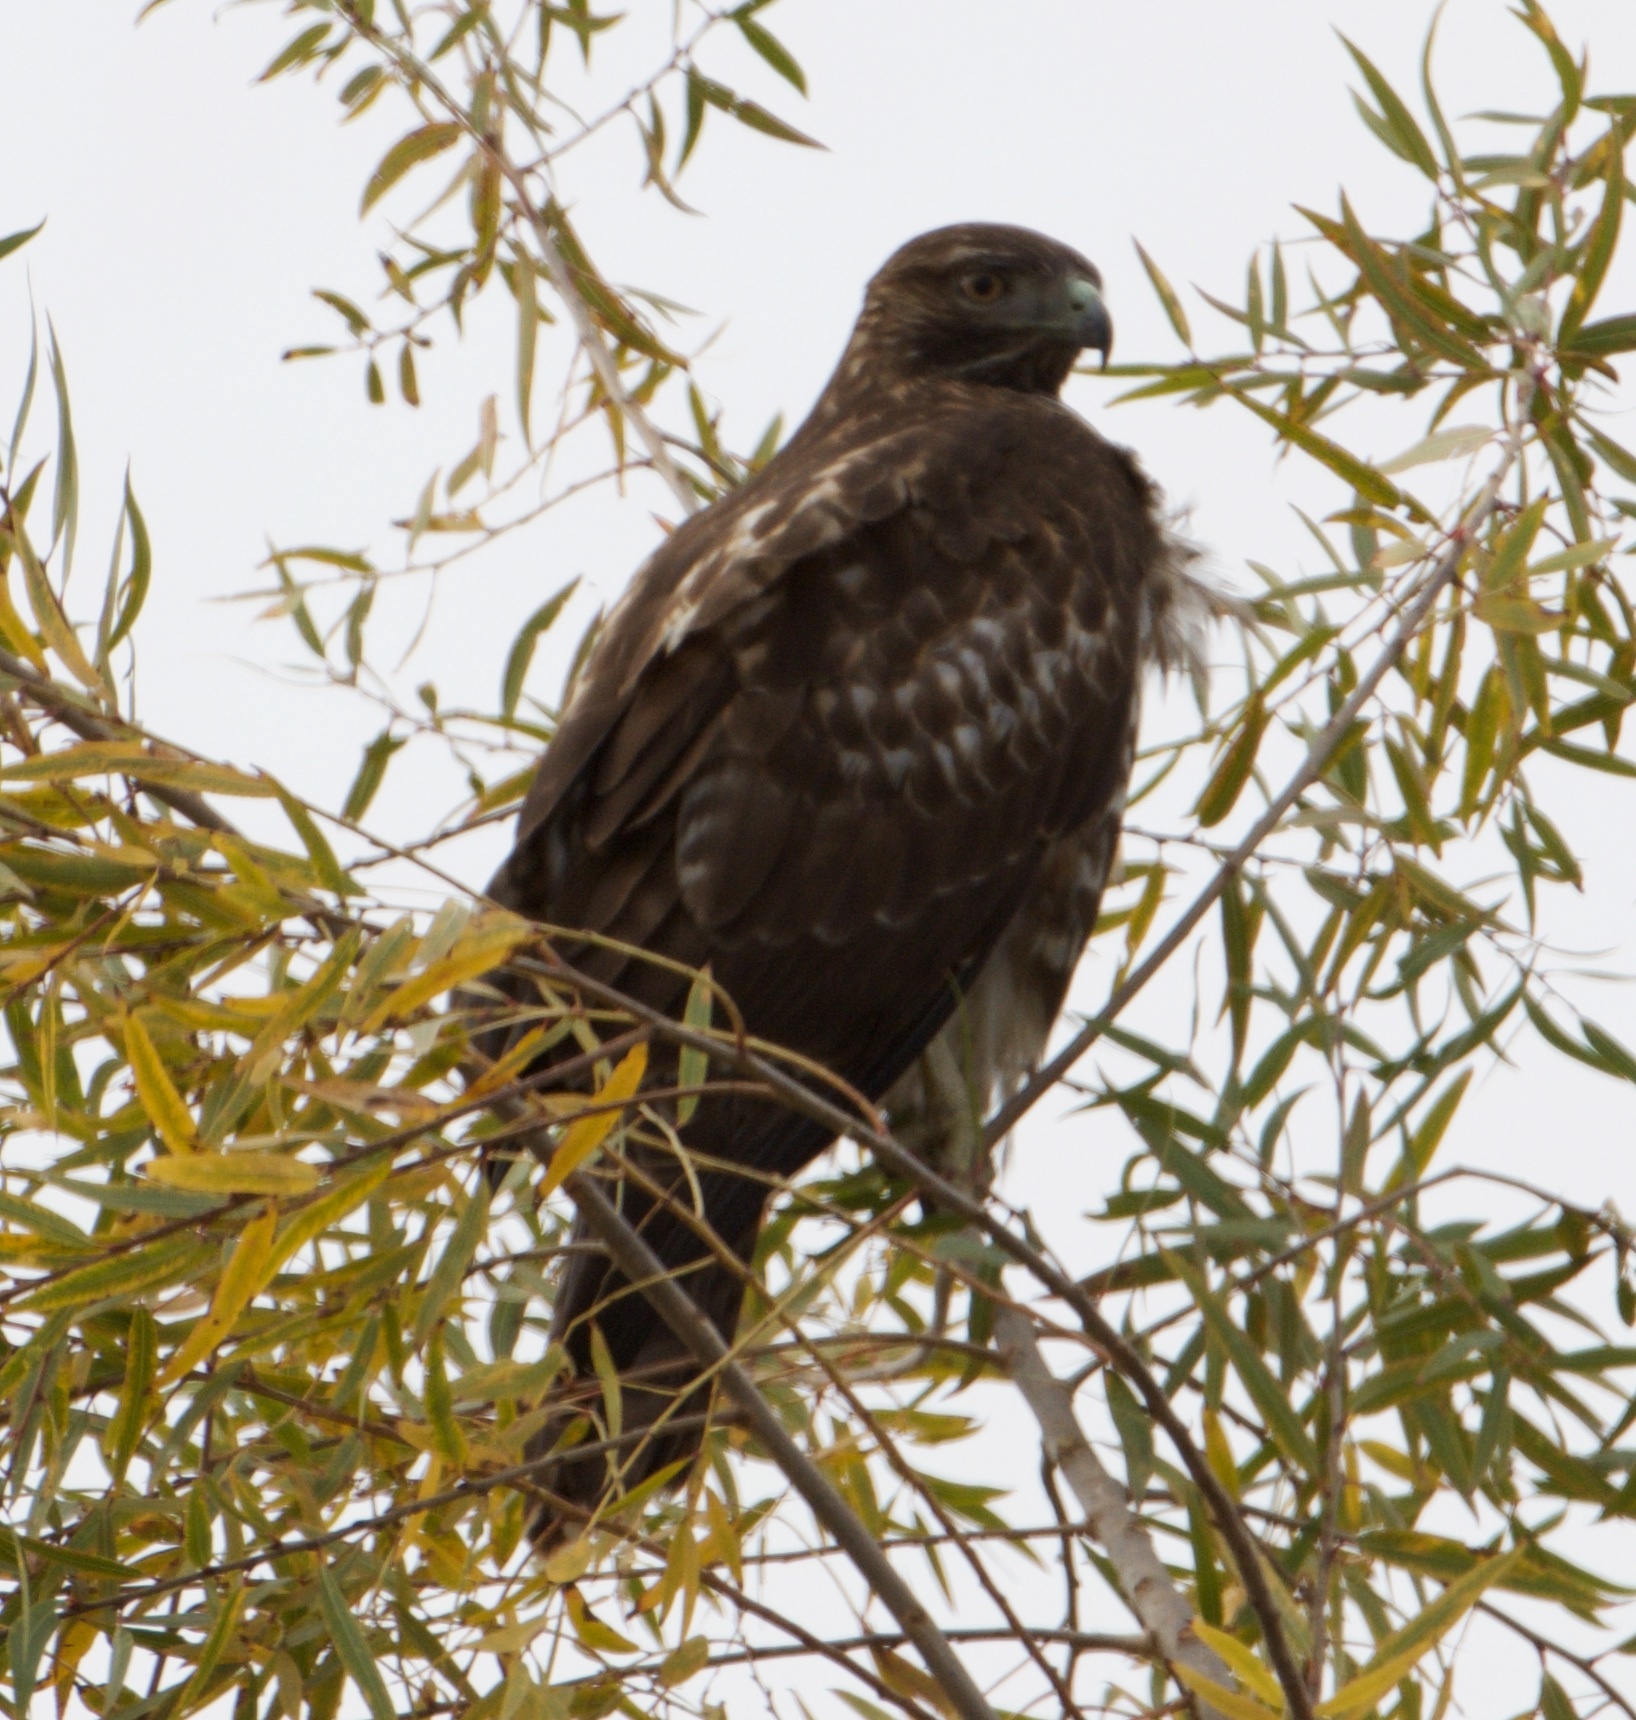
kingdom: Animalia
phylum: Chordata
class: Aves
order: Accipitriformes
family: Accipitridae
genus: Buteo
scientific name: Buteo jamaicensis
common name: Red-tailed hawk
